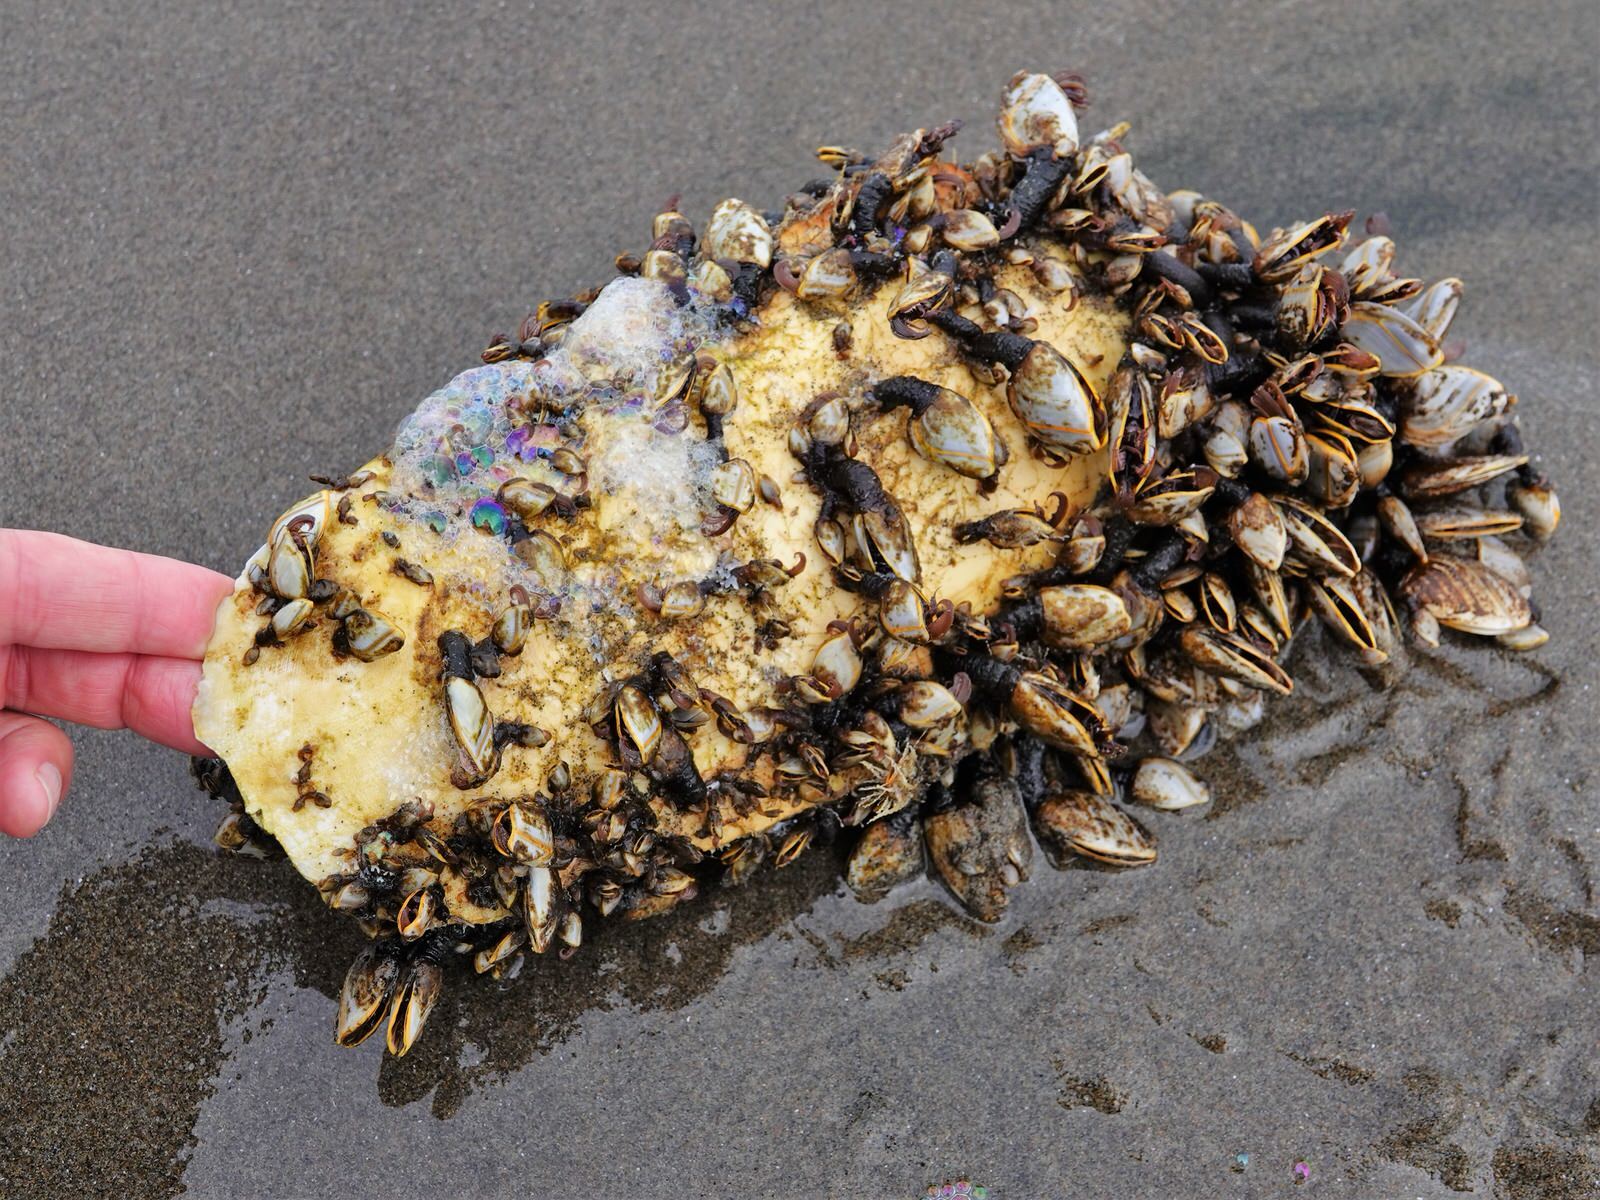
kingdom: Animalia
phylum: Arthropoda
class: Maxillopoda
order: Pedunculata
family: Lepadidae
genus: Lepas
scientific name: Lepas anatifera
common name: Common goose barnacle
